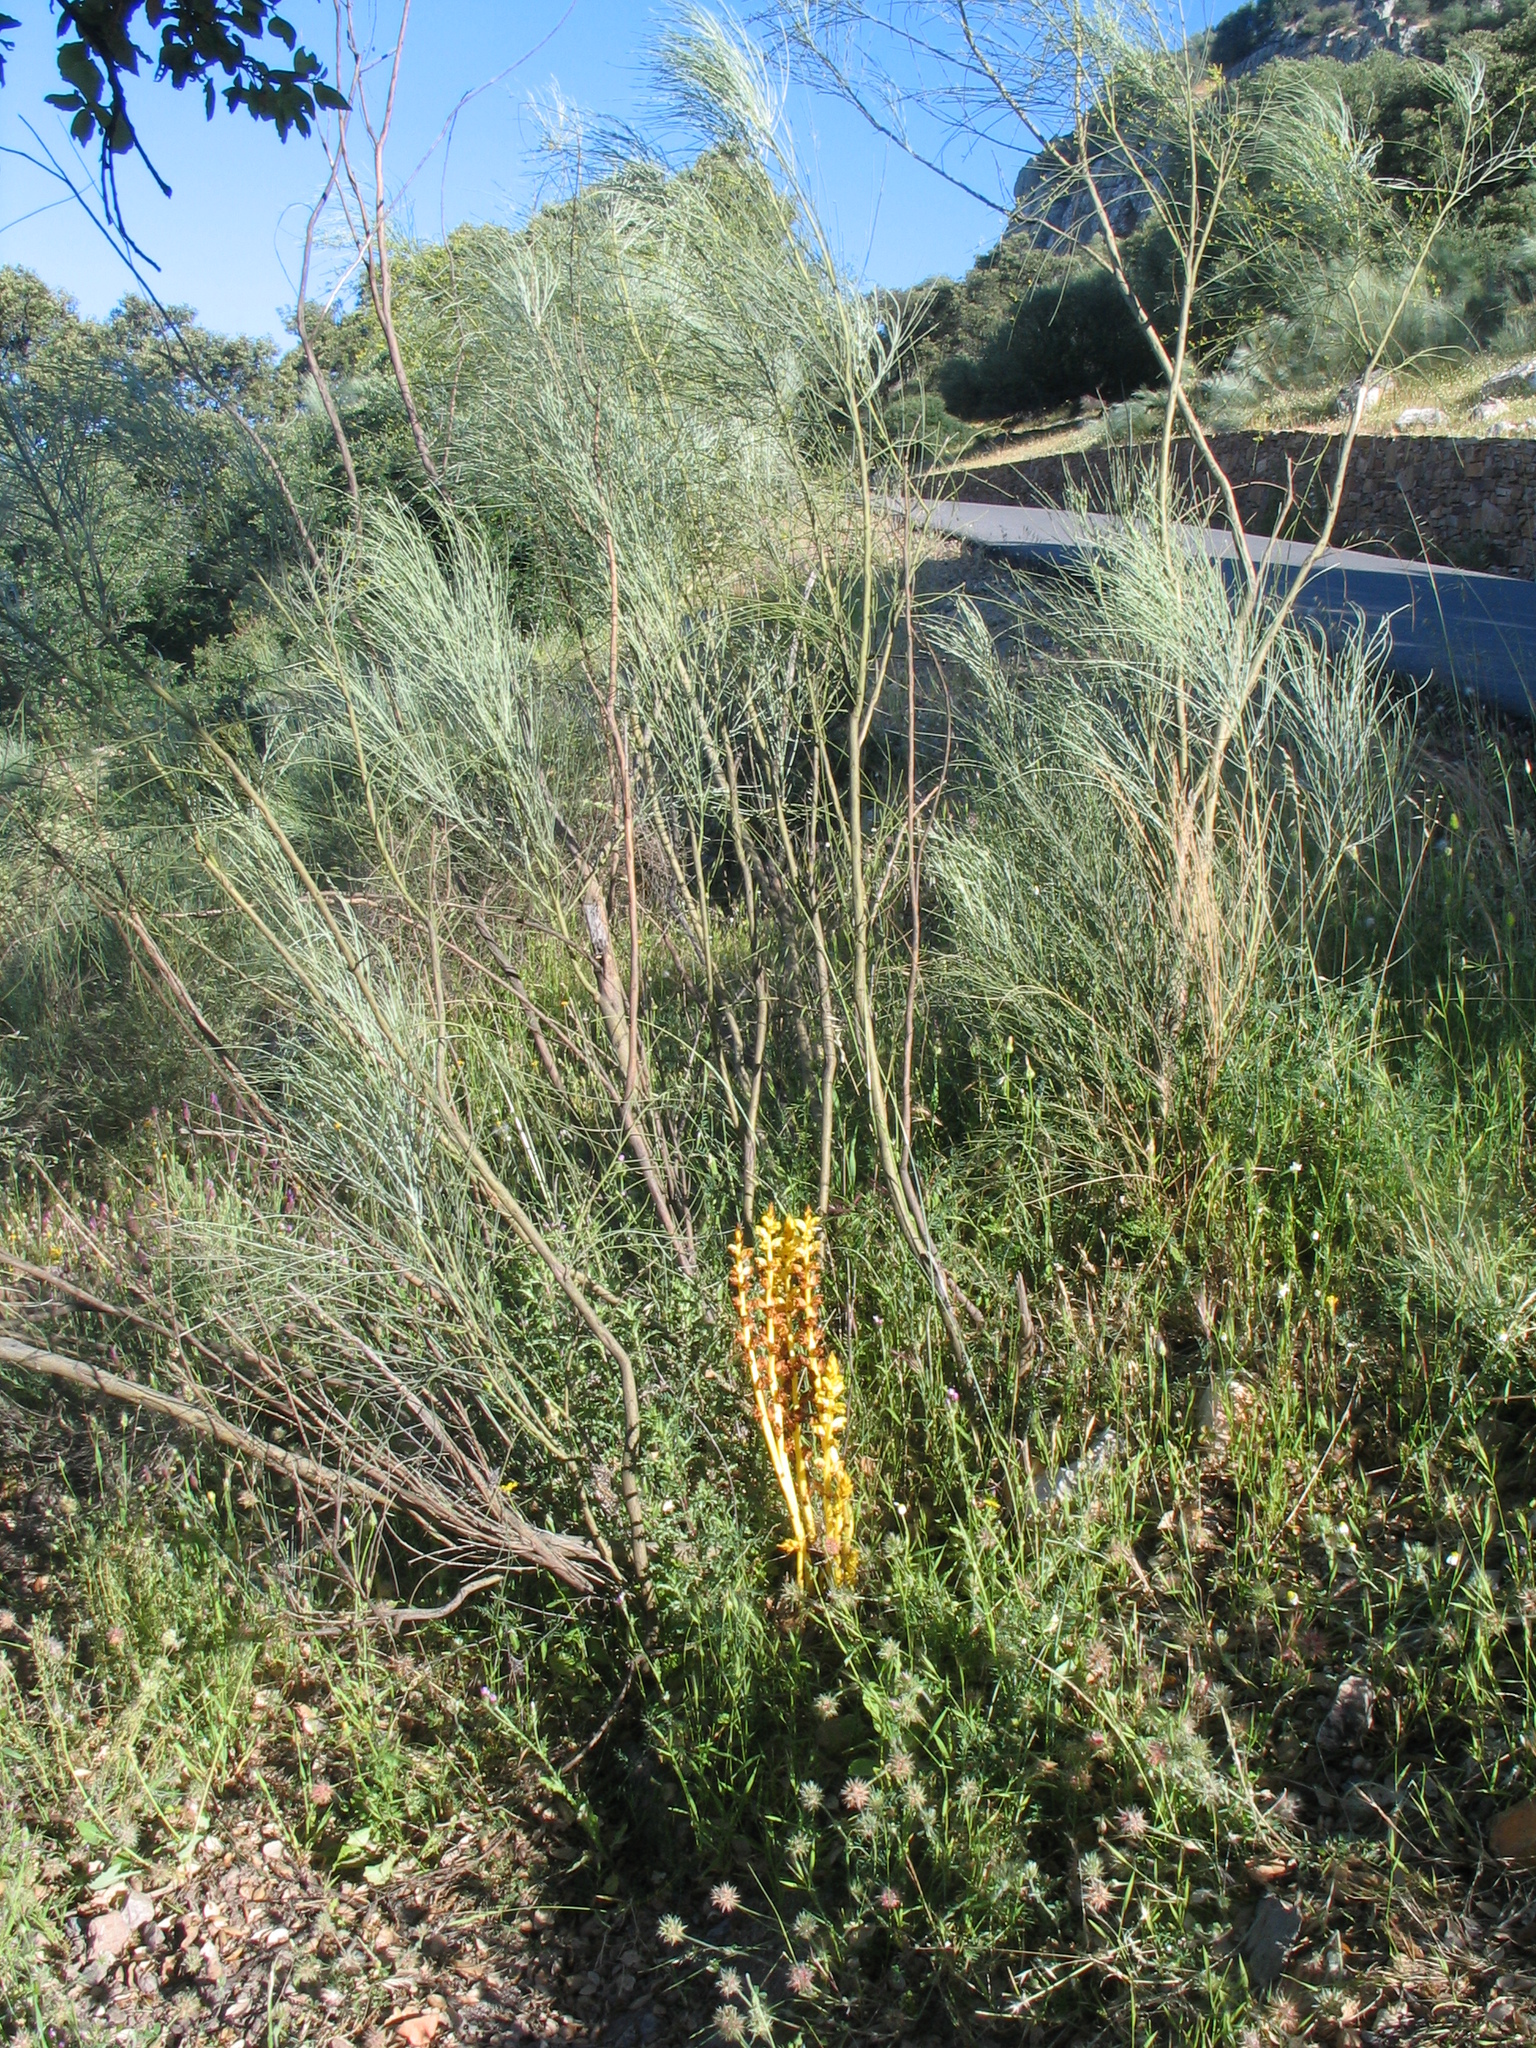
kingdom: Plantae
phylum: Tracheophyta
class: Magnoliopsida
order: Lamiales
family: Orobanchaceae
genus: Orobanche
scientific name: Orobanche rapum-genistae
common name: Greater broomrape
